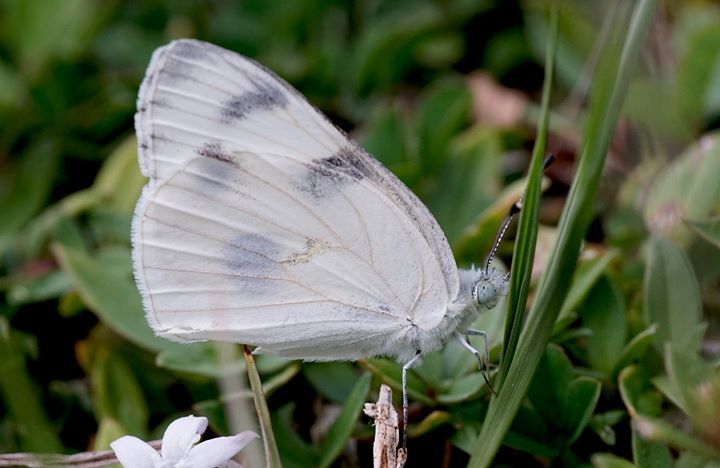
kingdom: Animalia
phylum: Arthropoda
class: Insecta
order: Lepidoptera
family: Pieridae
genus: Pontia
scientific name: Pontia protodice
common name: Checkered white
